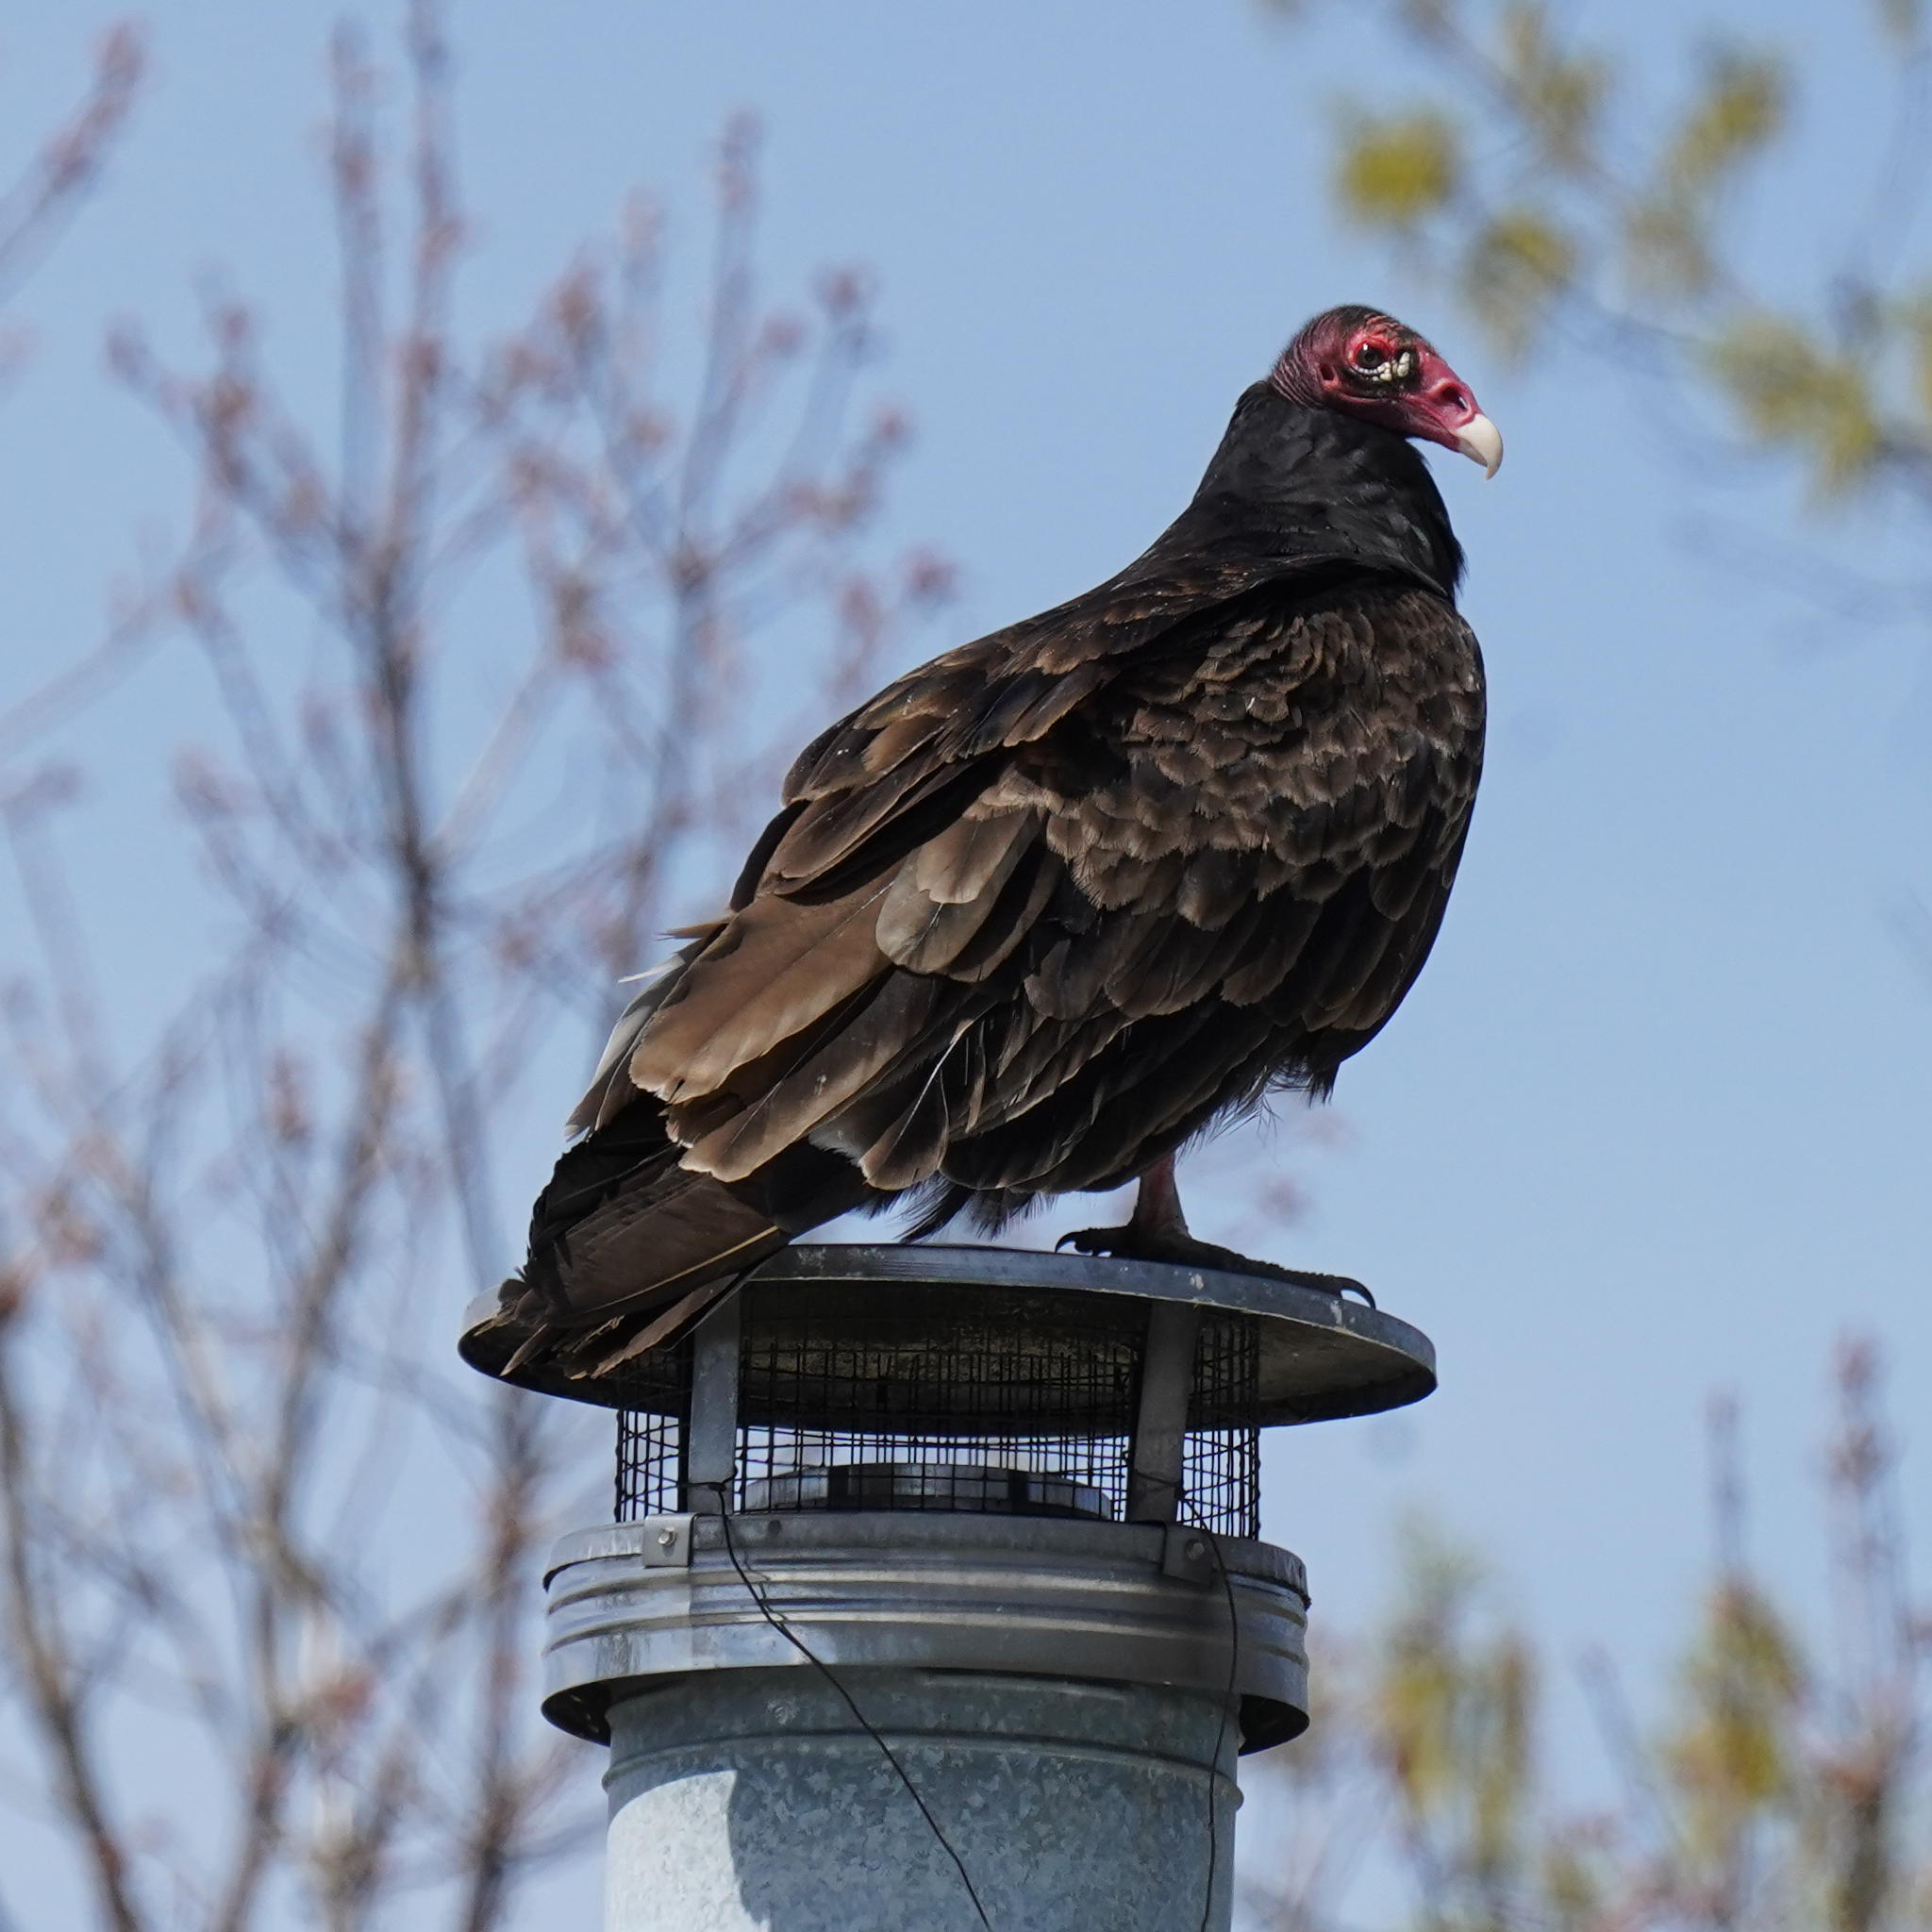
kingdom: Animalia
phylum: Chordata
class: Aves
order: Accipitriformes
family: Cathartidae
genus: Cathartes
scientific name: Cathartes aura
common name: Turkey vulture
